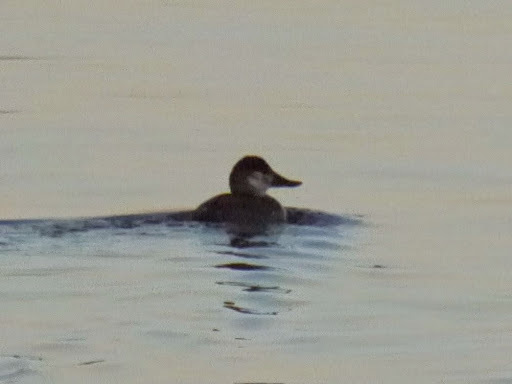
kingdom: Animalia
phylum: Chordata
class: Aves
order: Anseriformes
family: Anatidae
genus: Oxyura
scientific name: Oxyura jamaicensis
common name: Ruddy duck
